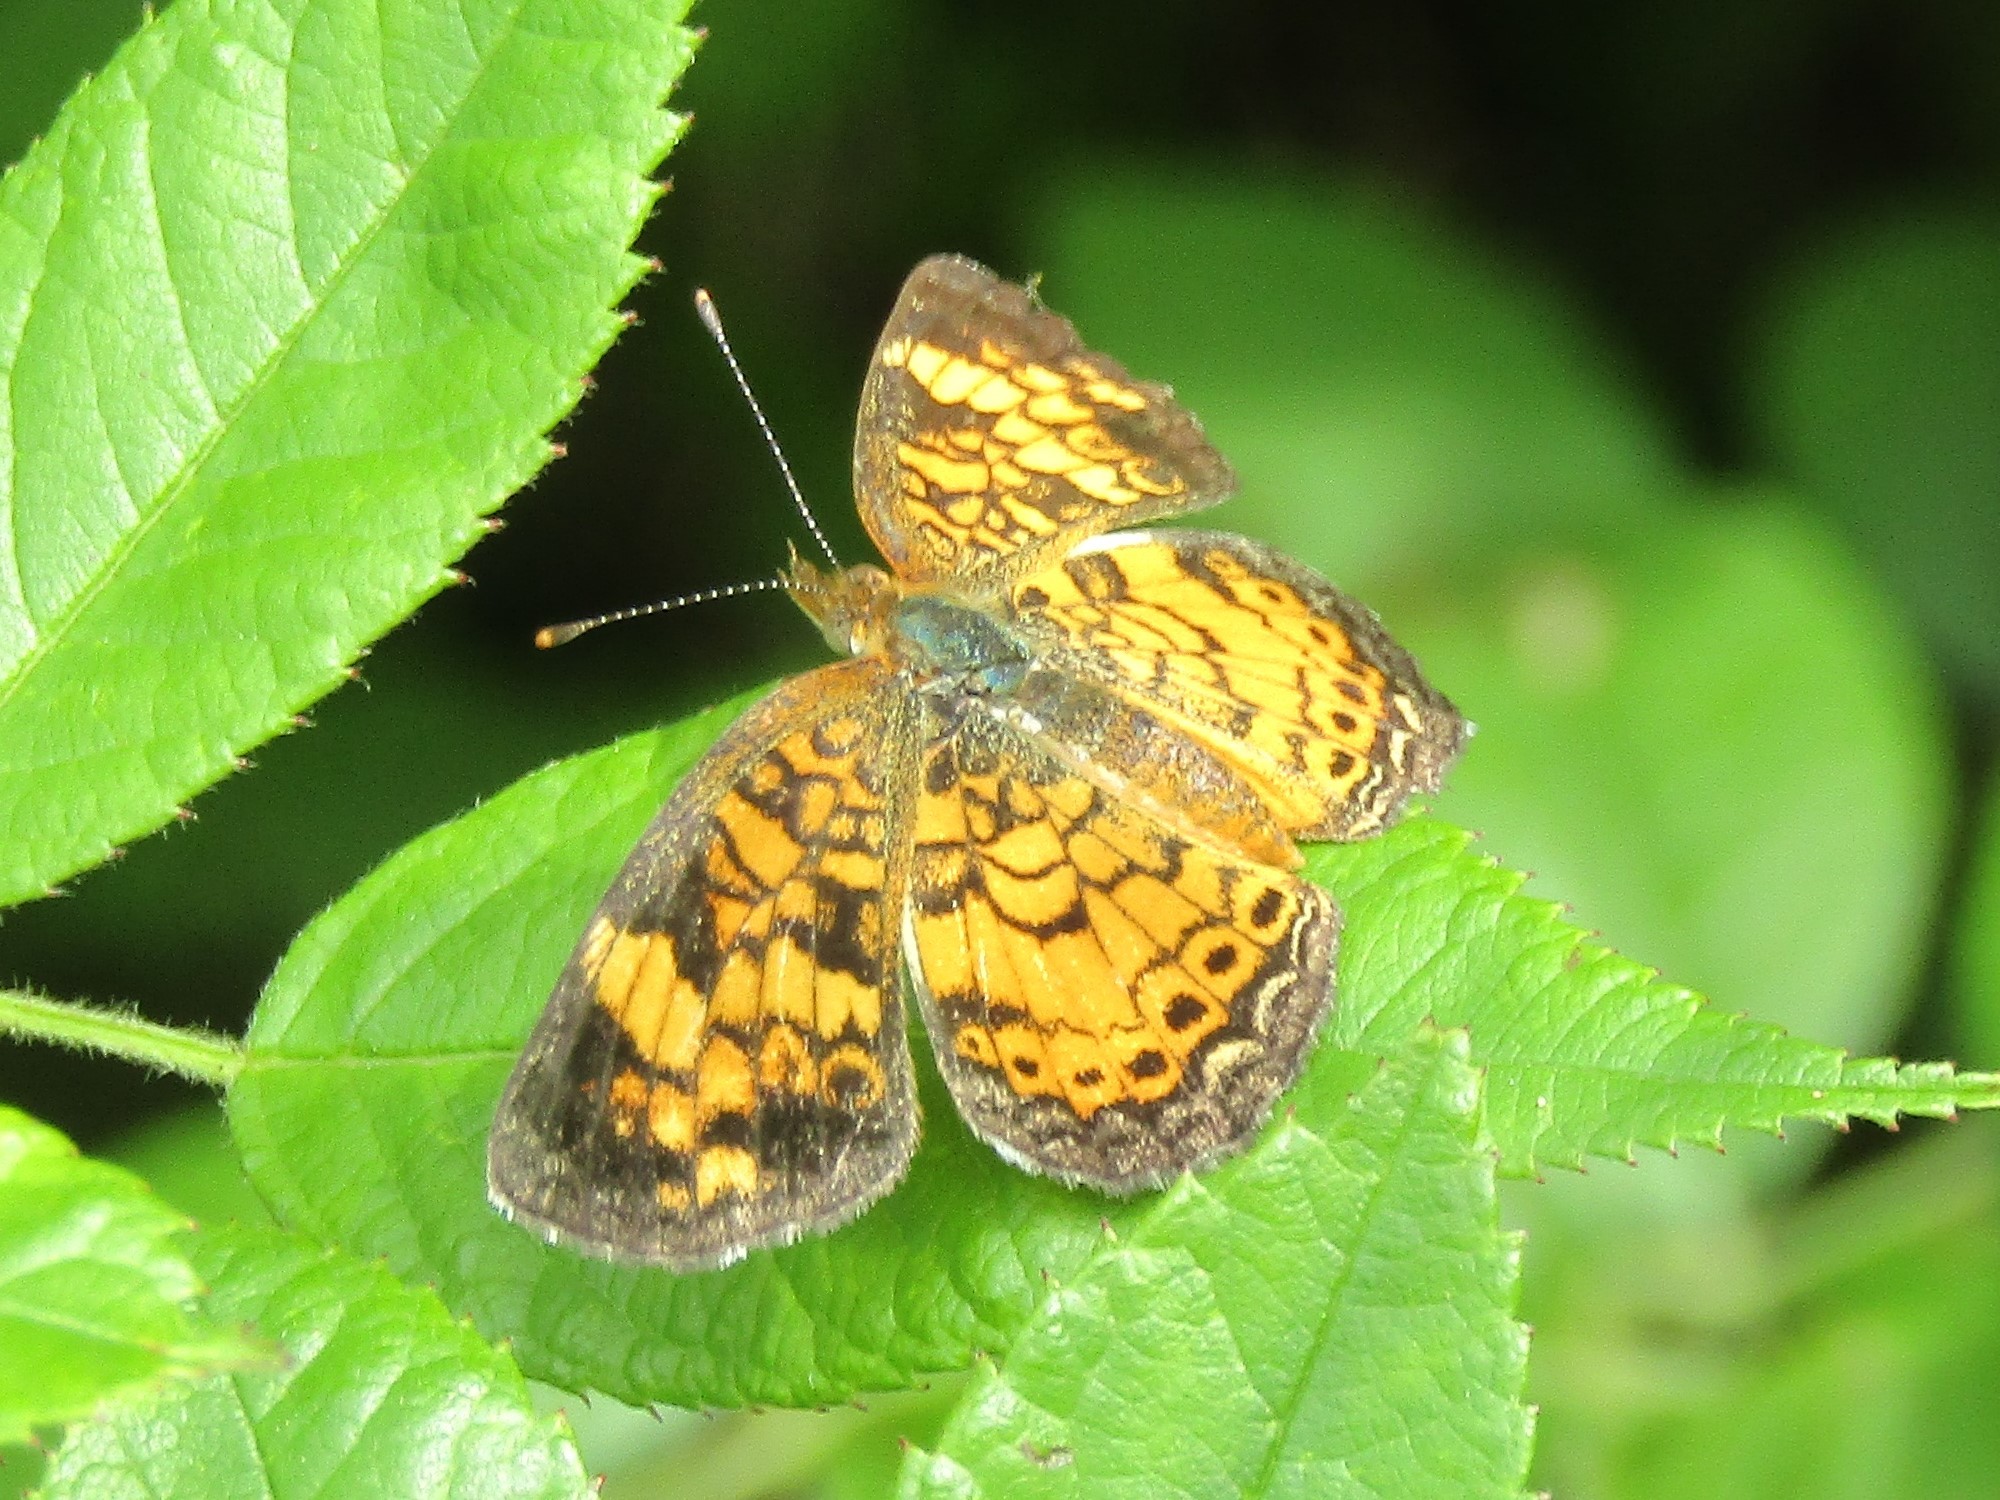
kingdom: Animalia
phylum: Arthropoda
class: Insecta
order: Lepidoptera
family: Nymphalidae
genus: Phyciodes
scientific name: Phyciodes tharos
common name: Pearl crescent
